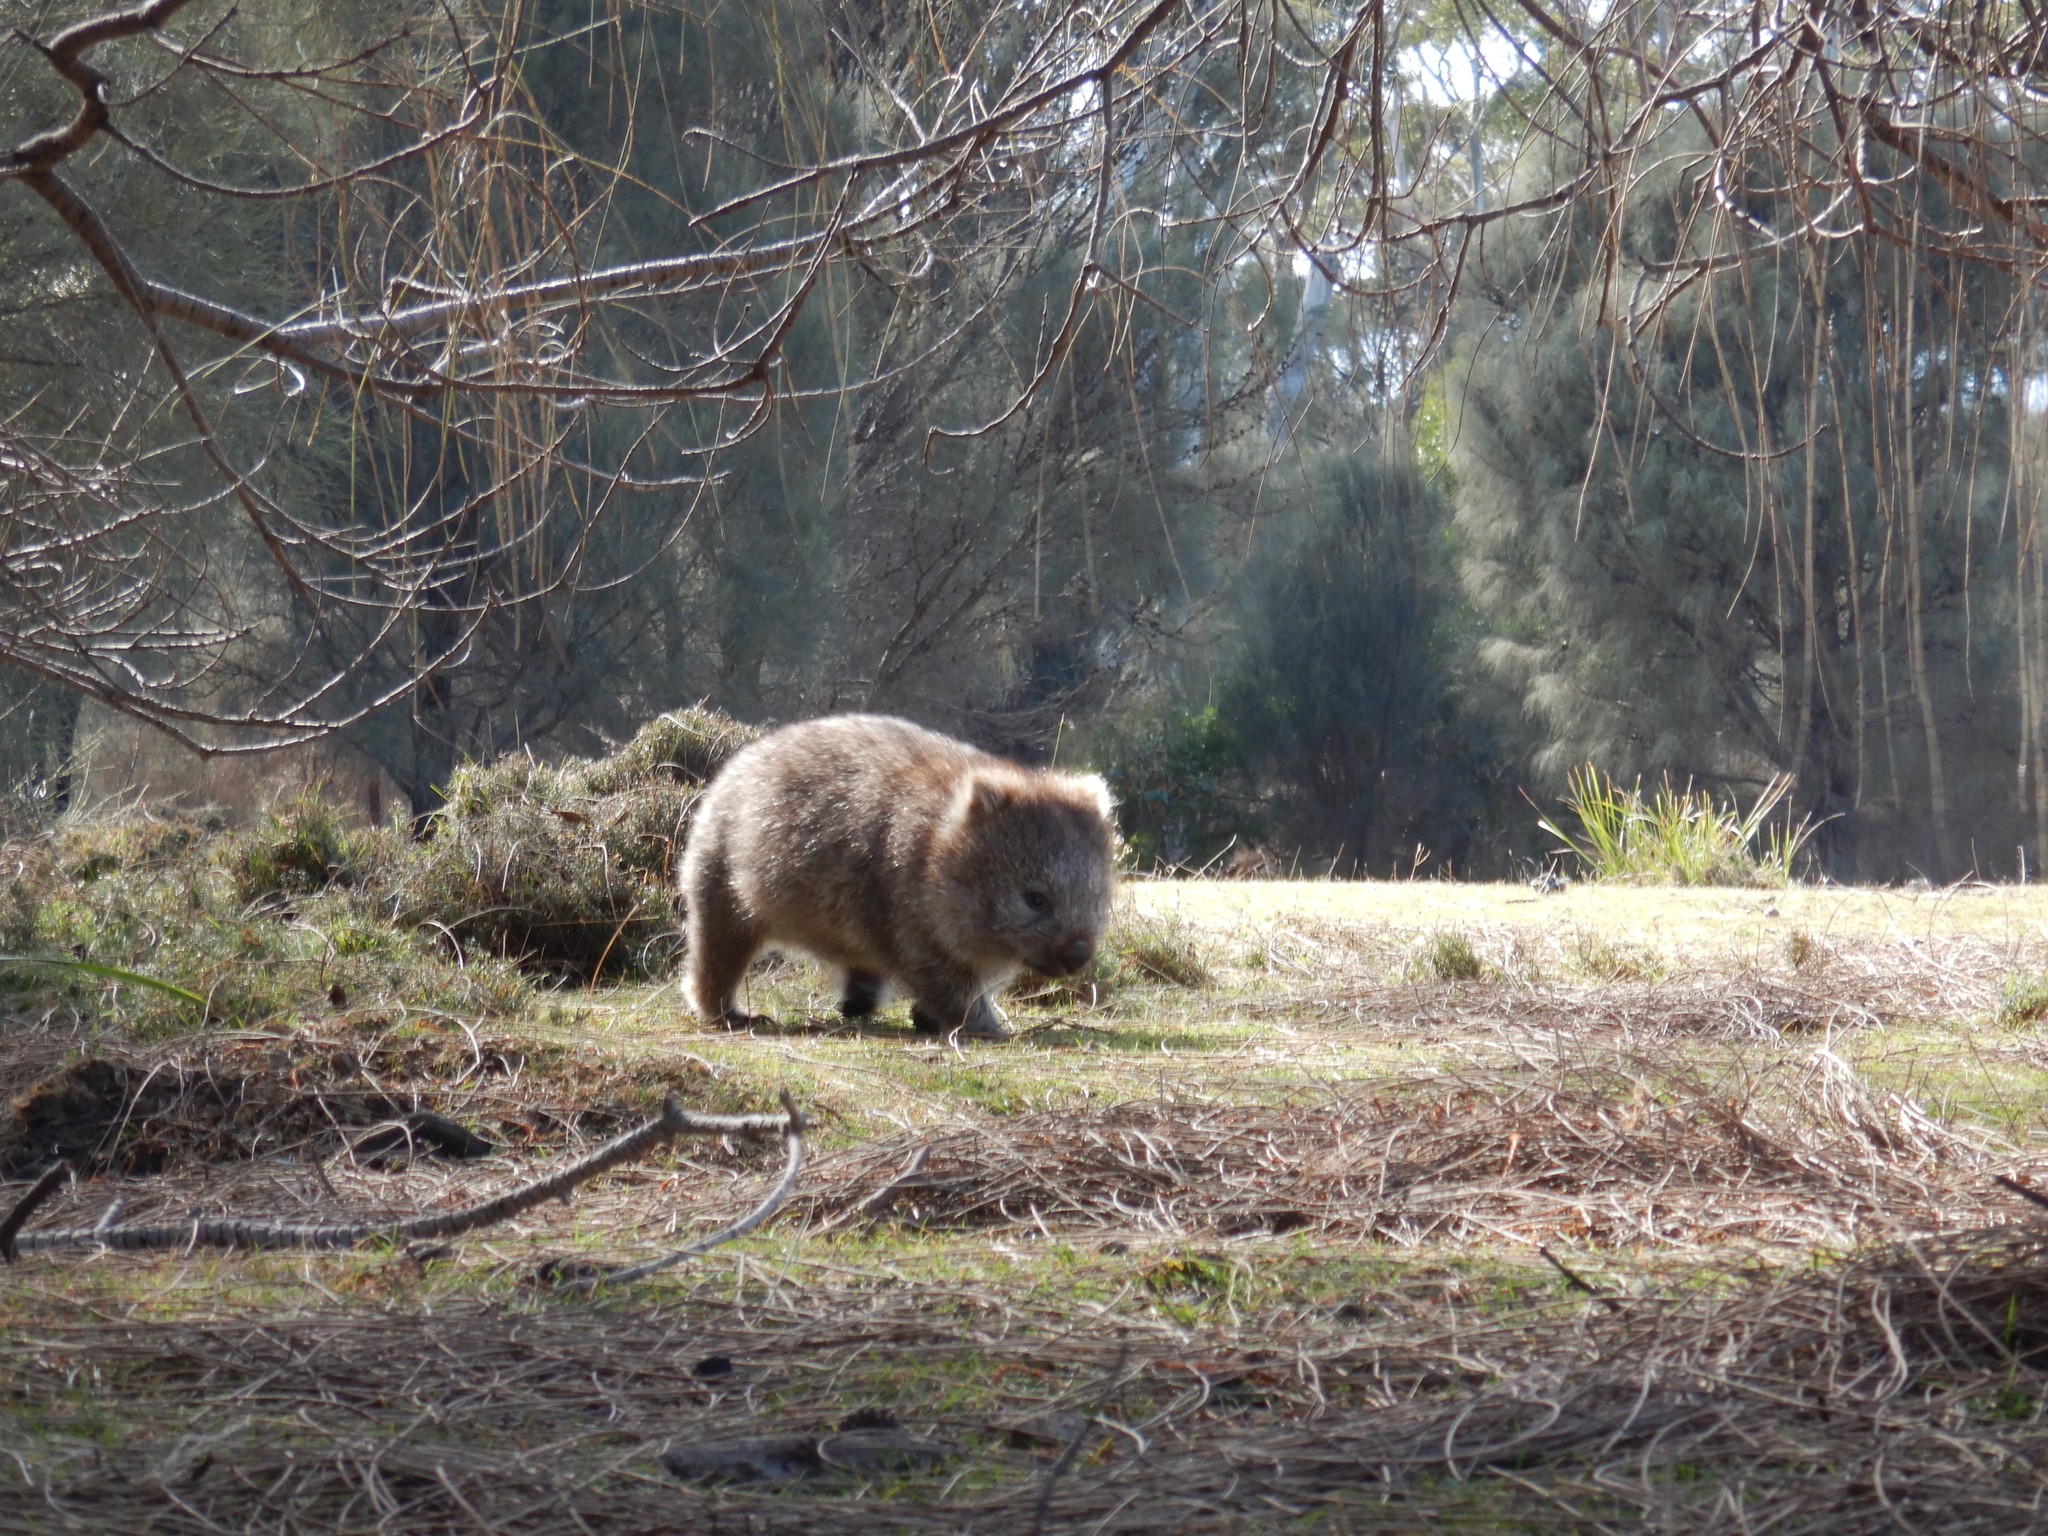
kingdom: Animalia
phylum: Chordata
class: Mammalia
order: Diprotodontia
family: Vombatidae
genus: Vombatus
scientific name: Vombatus ursinus
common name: Common wombat
